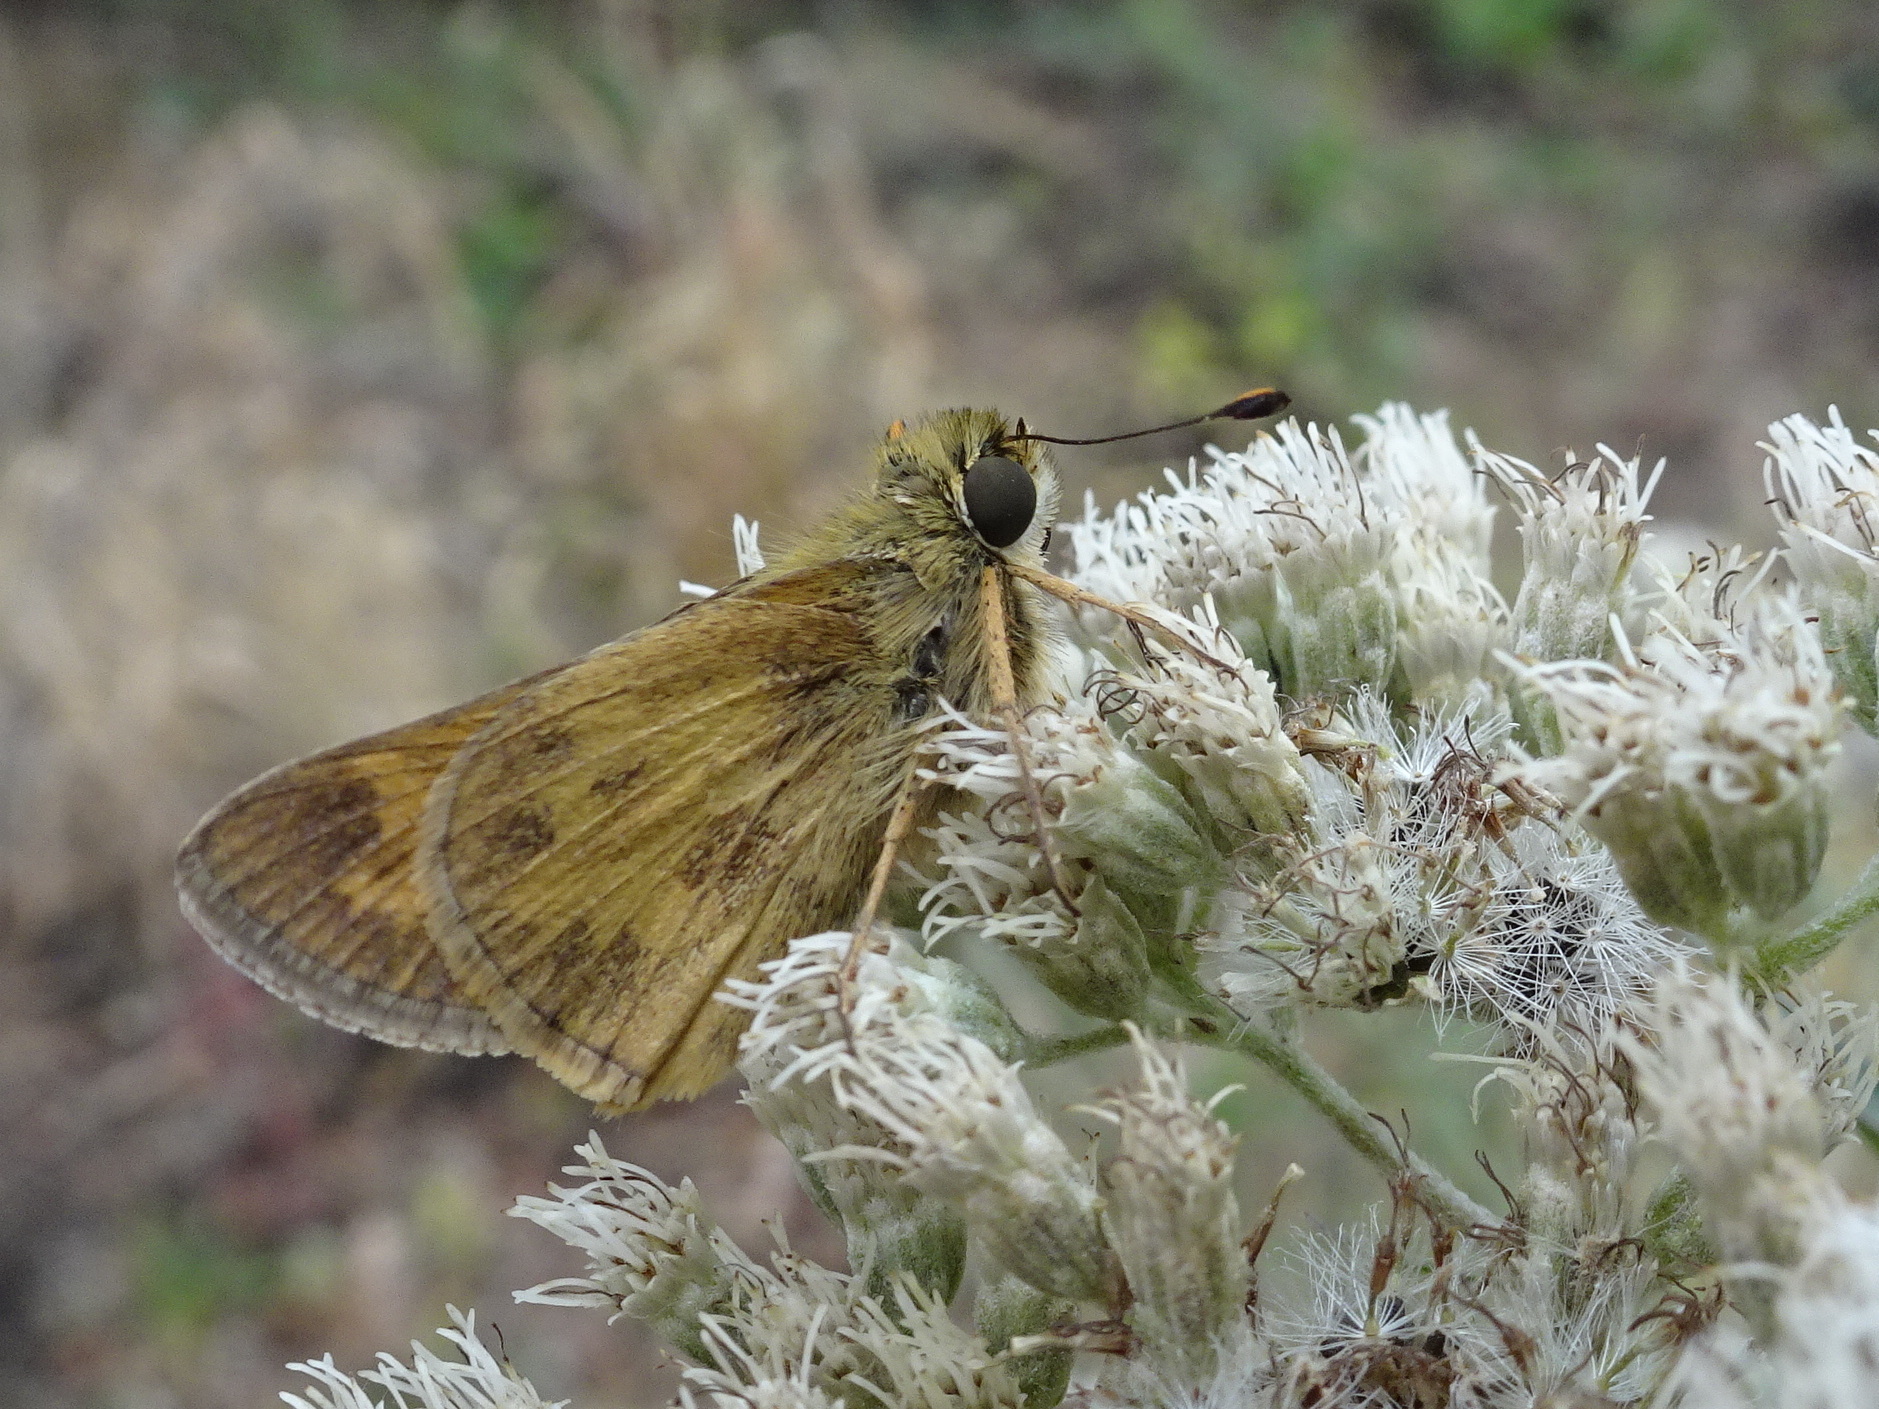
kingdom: Animalia
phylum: Arthropoda
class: Insecta
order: Lepidoptera
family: Hesperiidae
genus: Atalopedes
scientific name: Atalopedes
